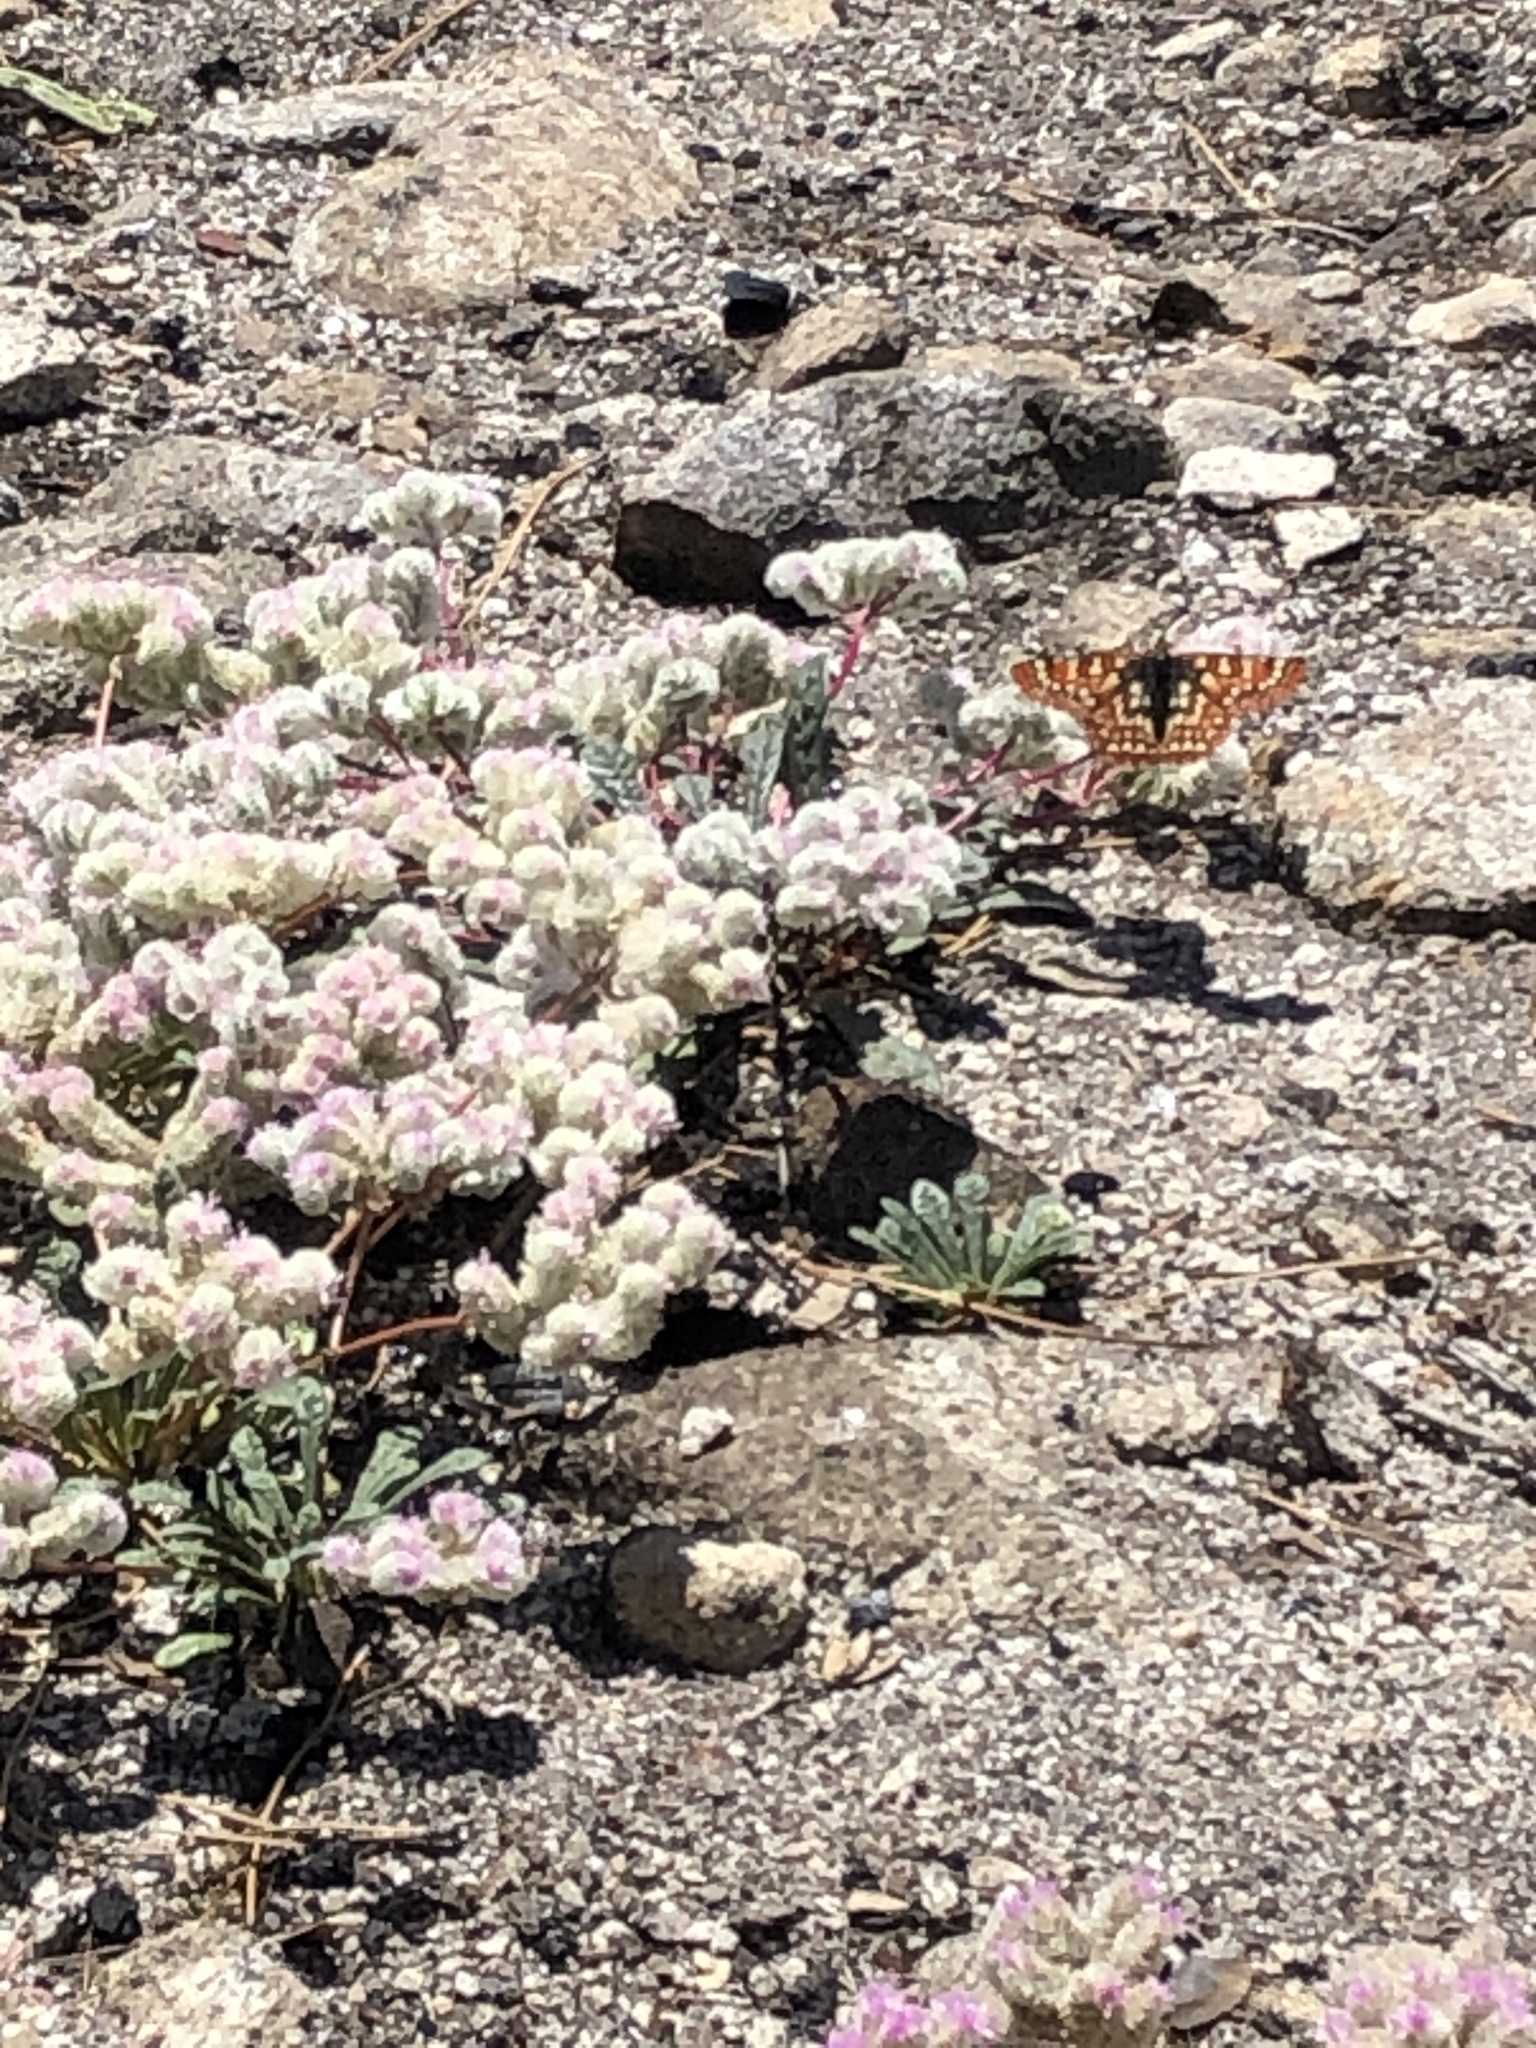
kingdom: Animalia
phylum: Arthropoda
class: Insecta
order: Lepidoptera
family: Nymphalidae
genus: Occidryas
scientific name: Occidryas chalcedona
